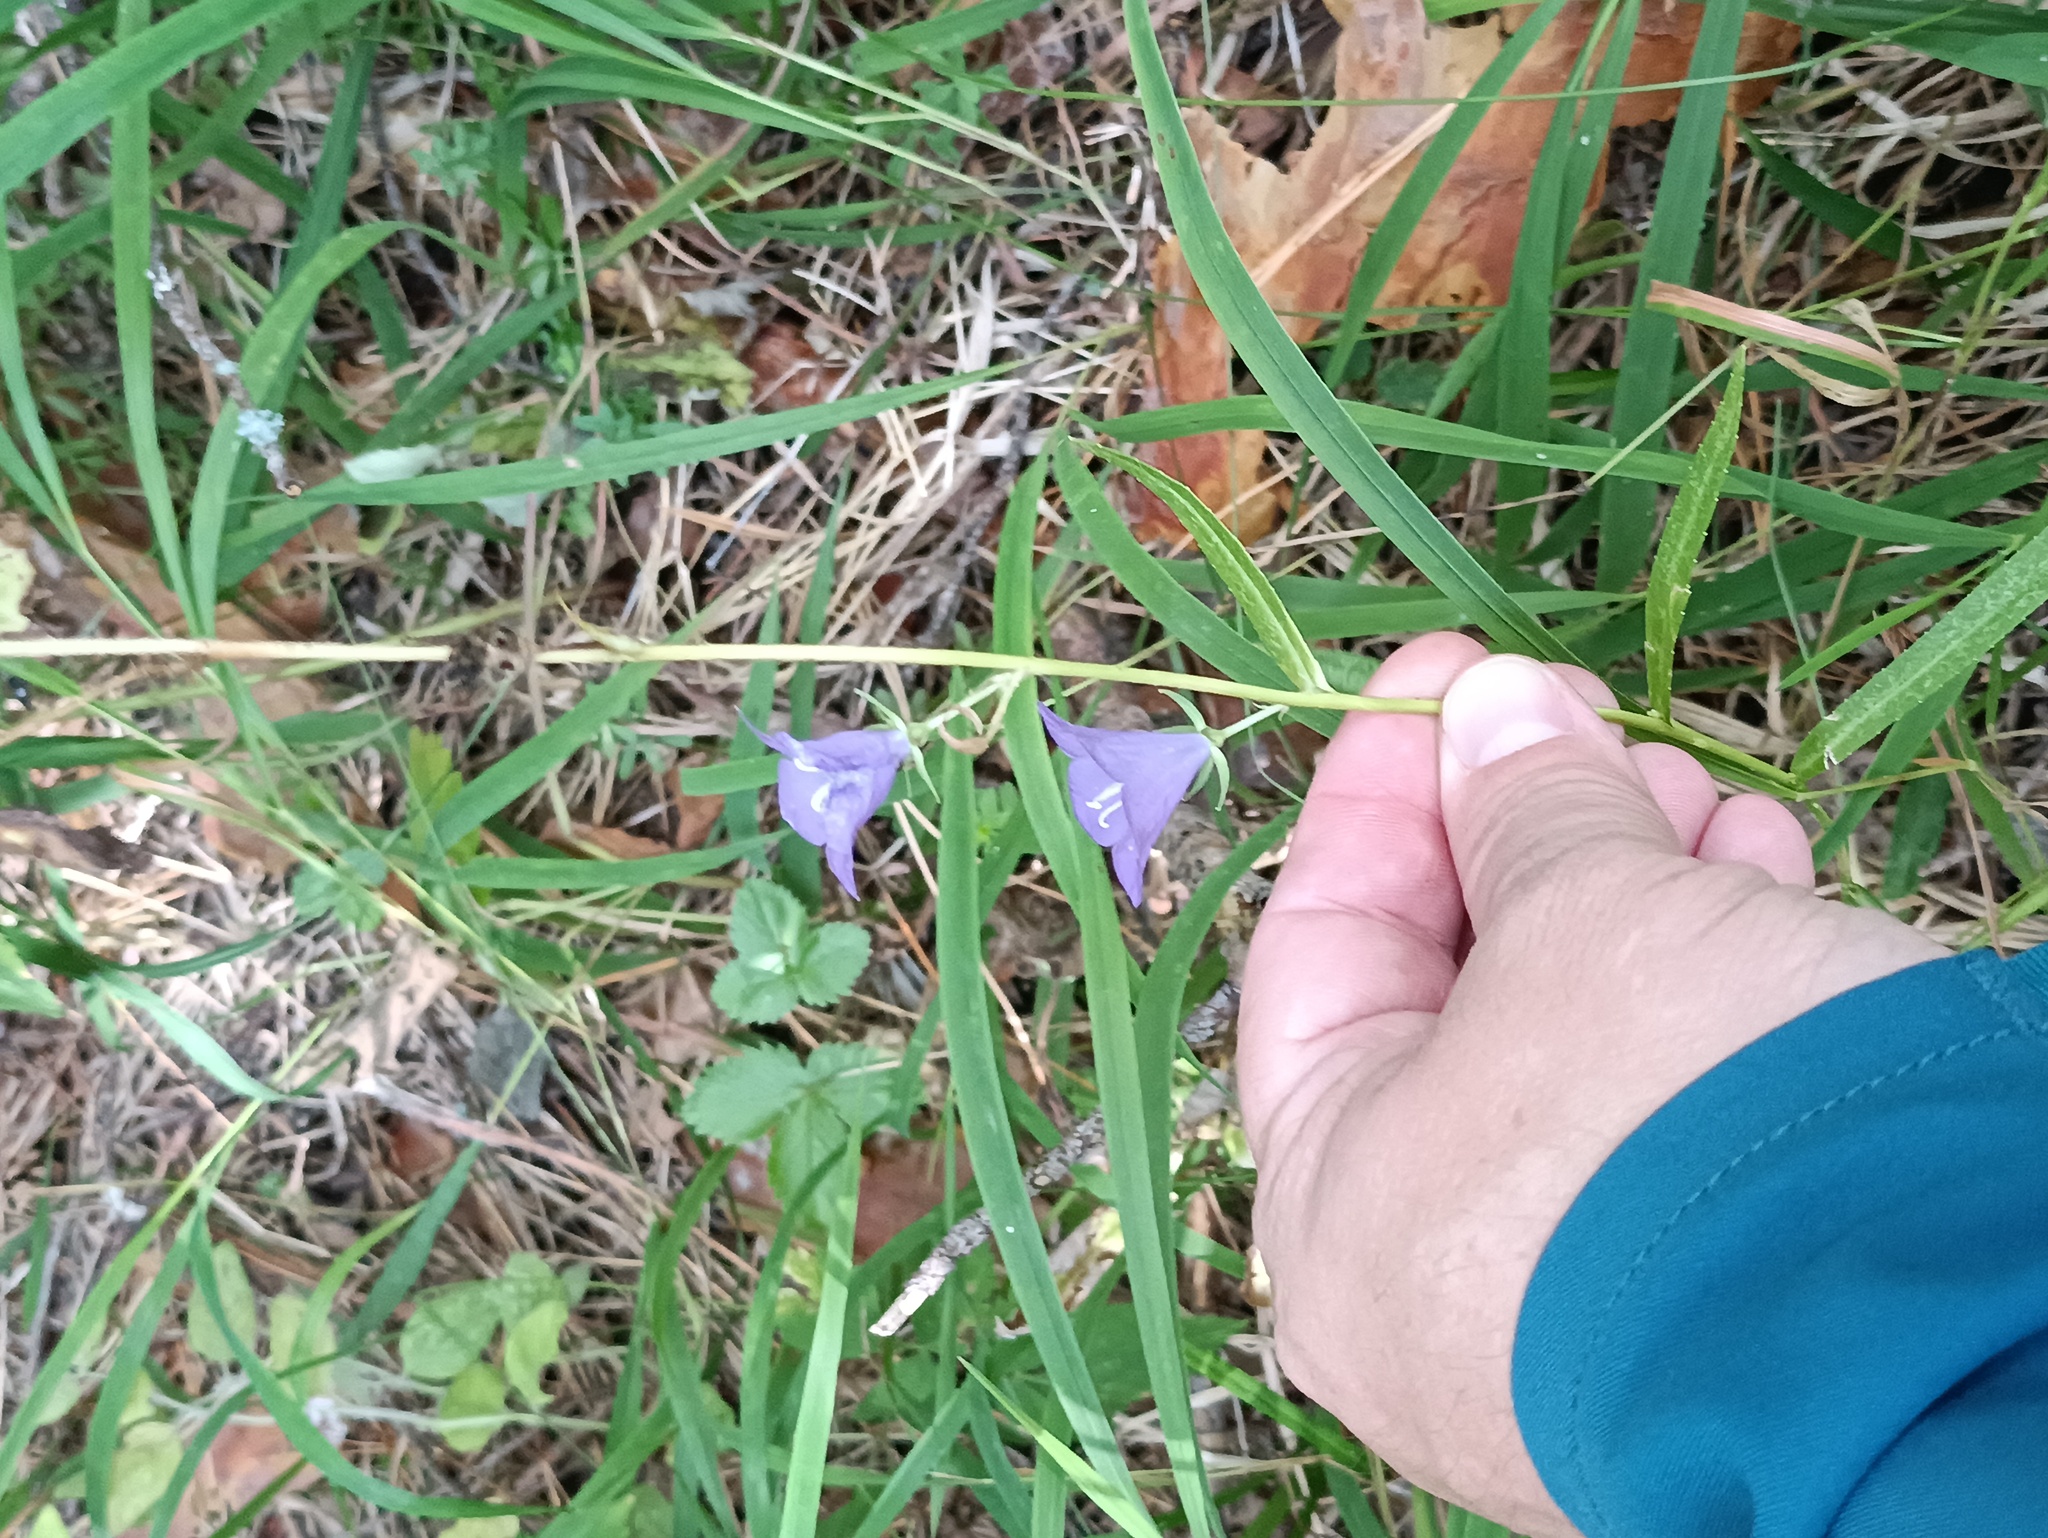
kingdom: Plantae
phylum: Tracheophyta
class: Magnoliopsida
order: Asterales
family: Campanulaceae
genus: Campanula
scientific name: Campanula persicifolia
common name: Peach-leaved bellflower
